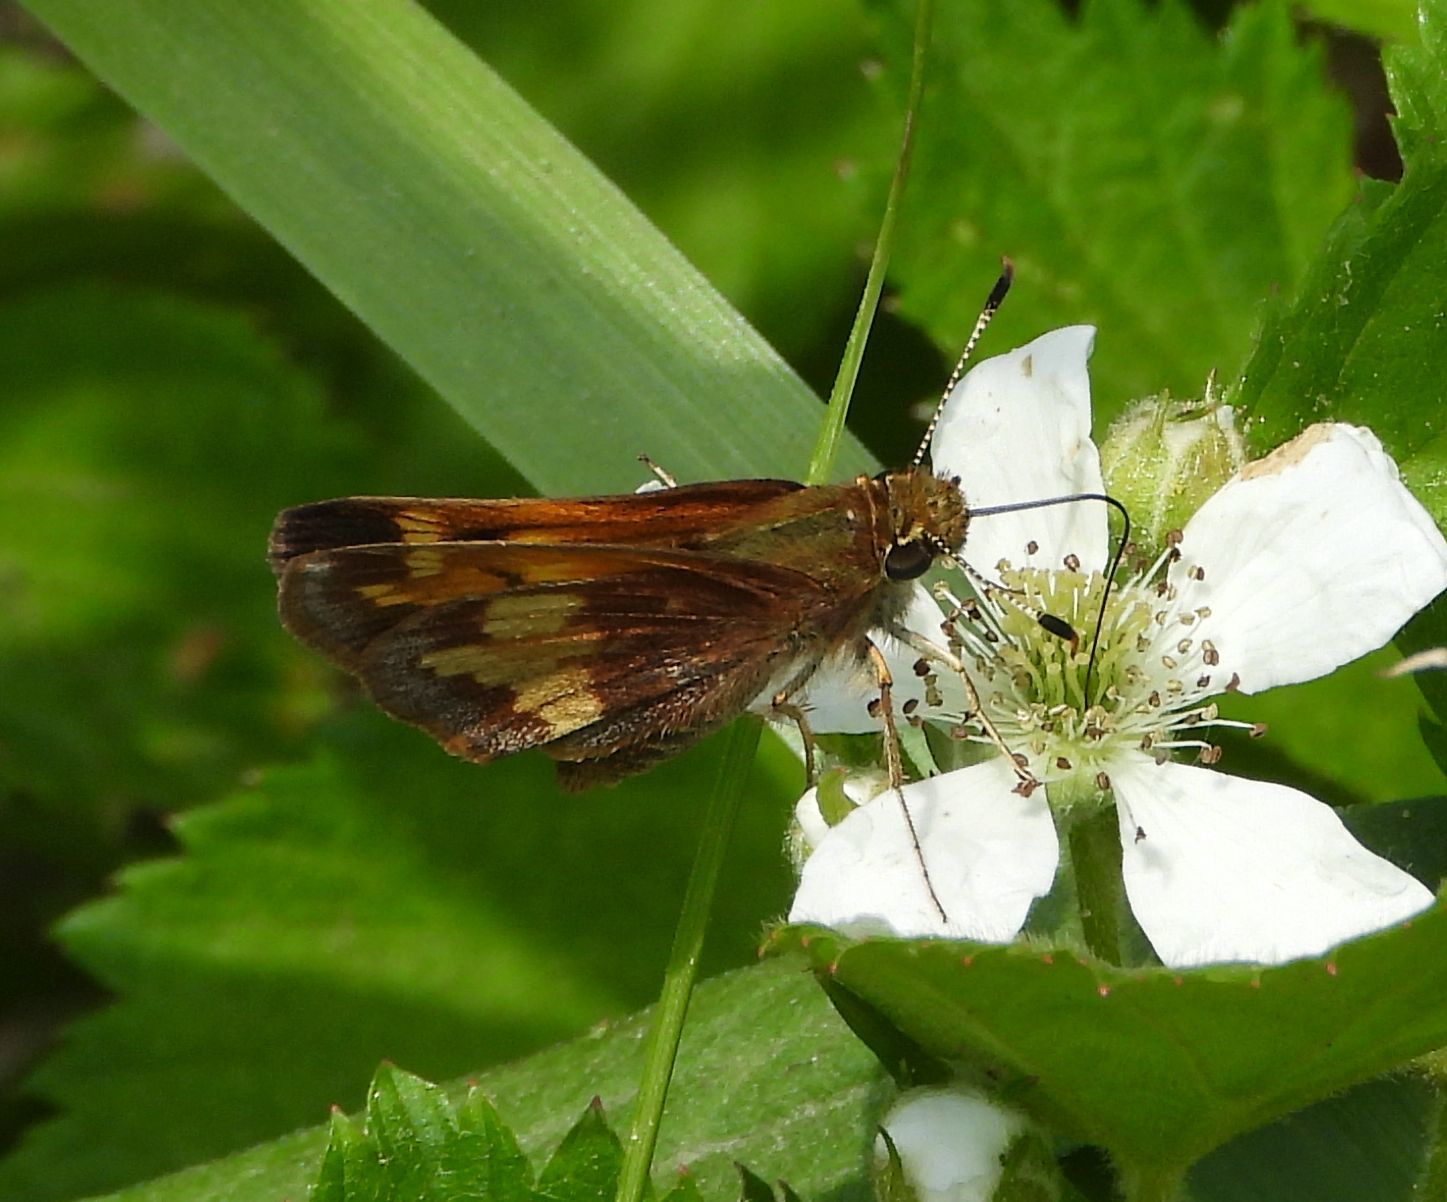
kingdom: Animalia
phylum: Arthropoda
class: Insecta
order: Lepidoptera
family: Hesperiidae
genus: Lon
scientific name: Lon hobomok
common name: Hobomok skipper
